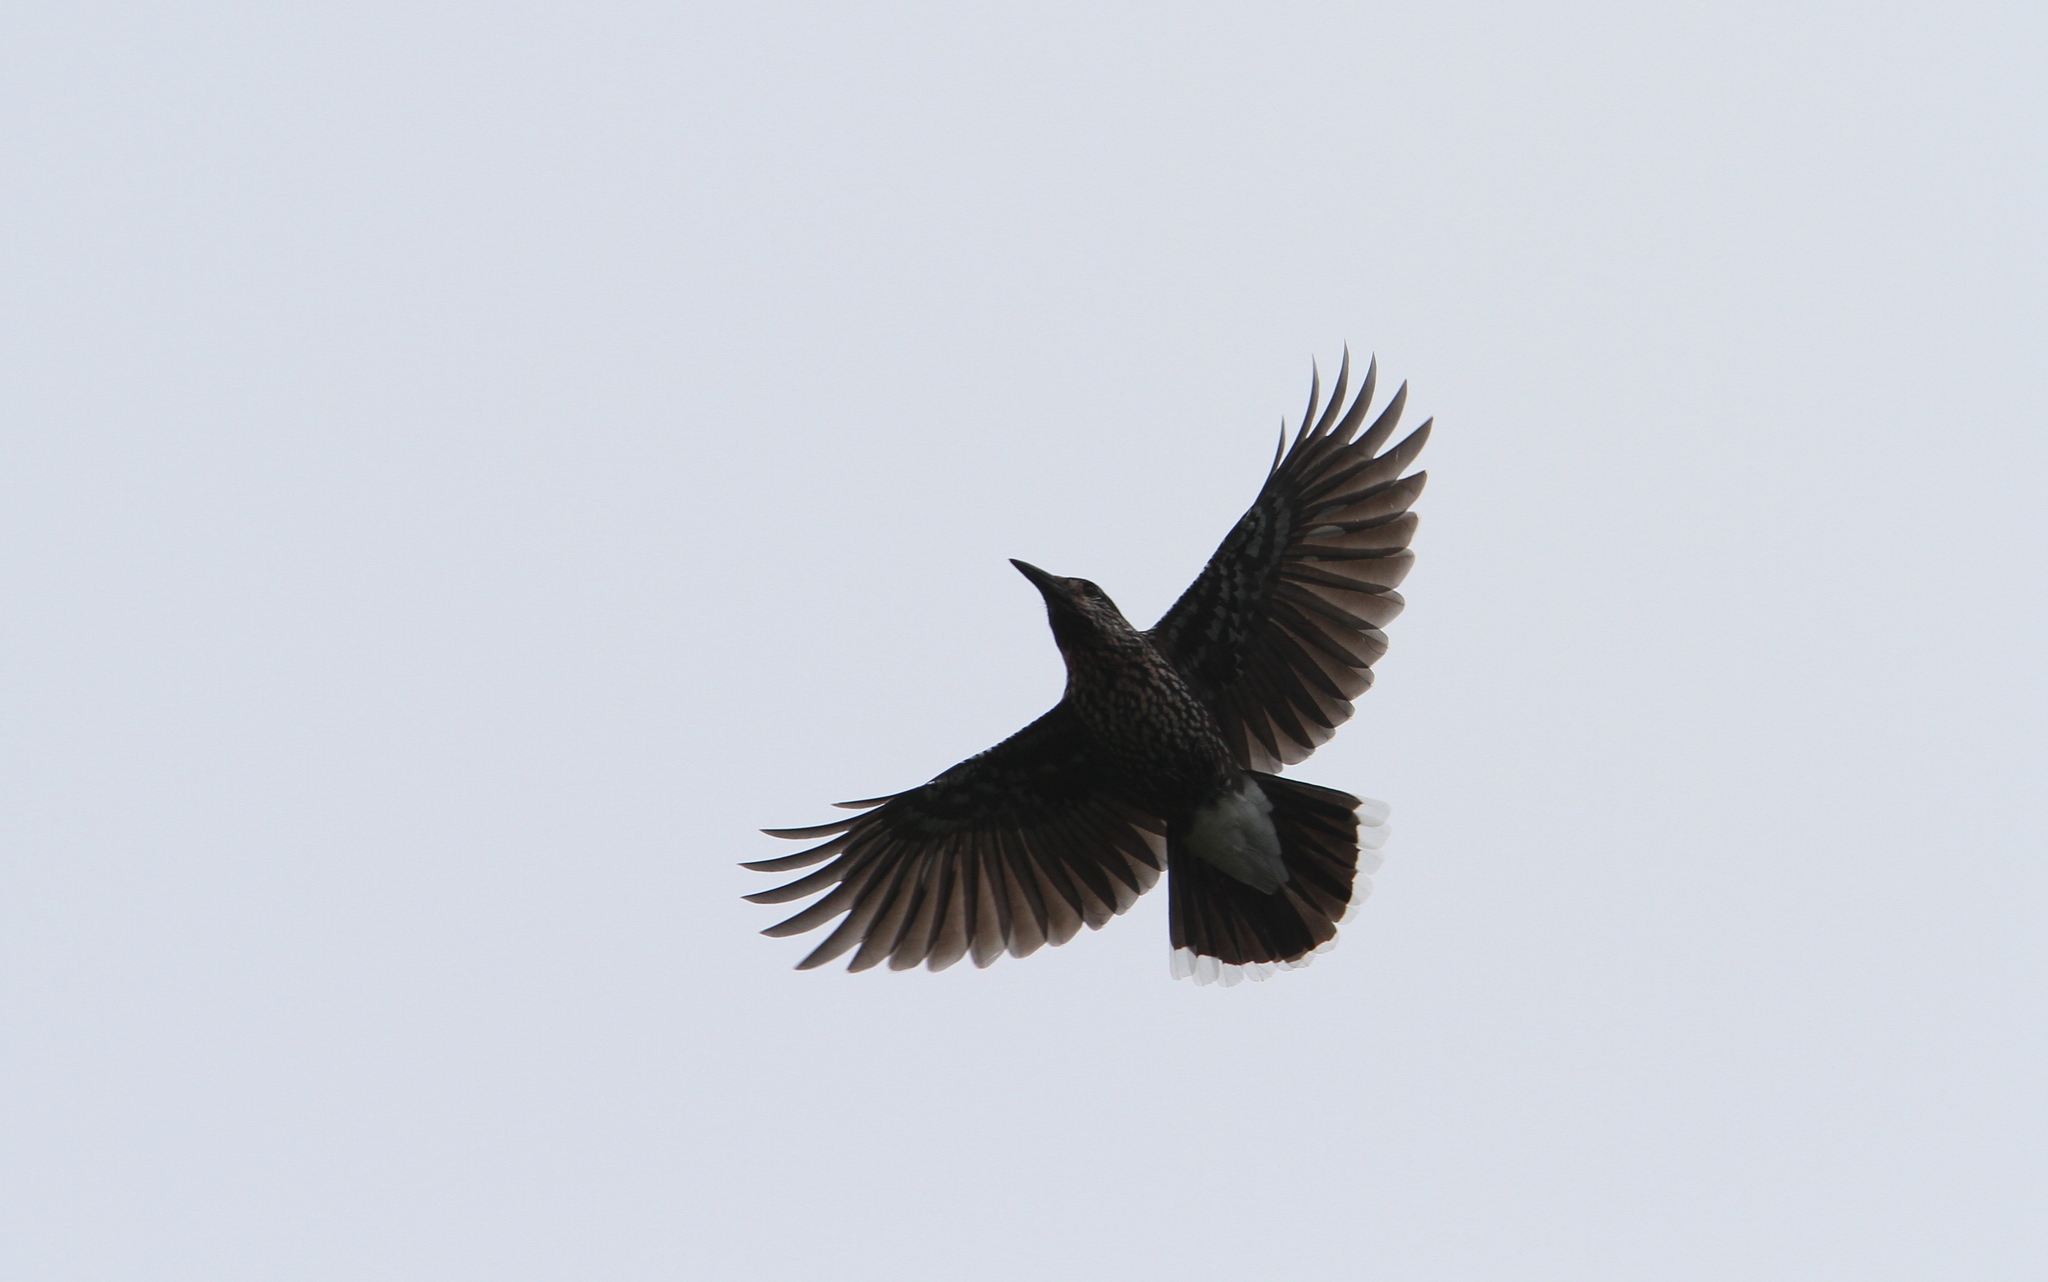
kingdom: Animalia
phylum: Chordata
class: Aves
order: Passeriformes
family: Corvidae
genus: Nucifraga
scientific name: Nucifraga caryocatactes
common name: Spotted nutcracker
